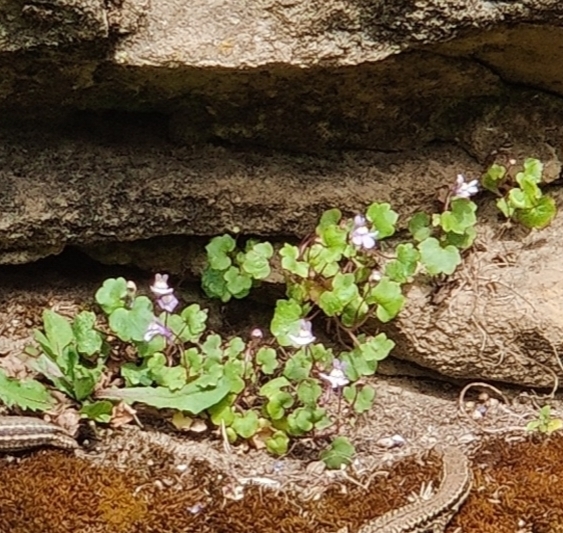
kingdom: Plantae
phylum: Tracheophyta
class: Magnoliopsida
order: Lamiales
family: Plantaginaceae
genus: Cymbalaria
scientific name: Cymbalaria muralis
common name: Ivy-leaved toadflax
